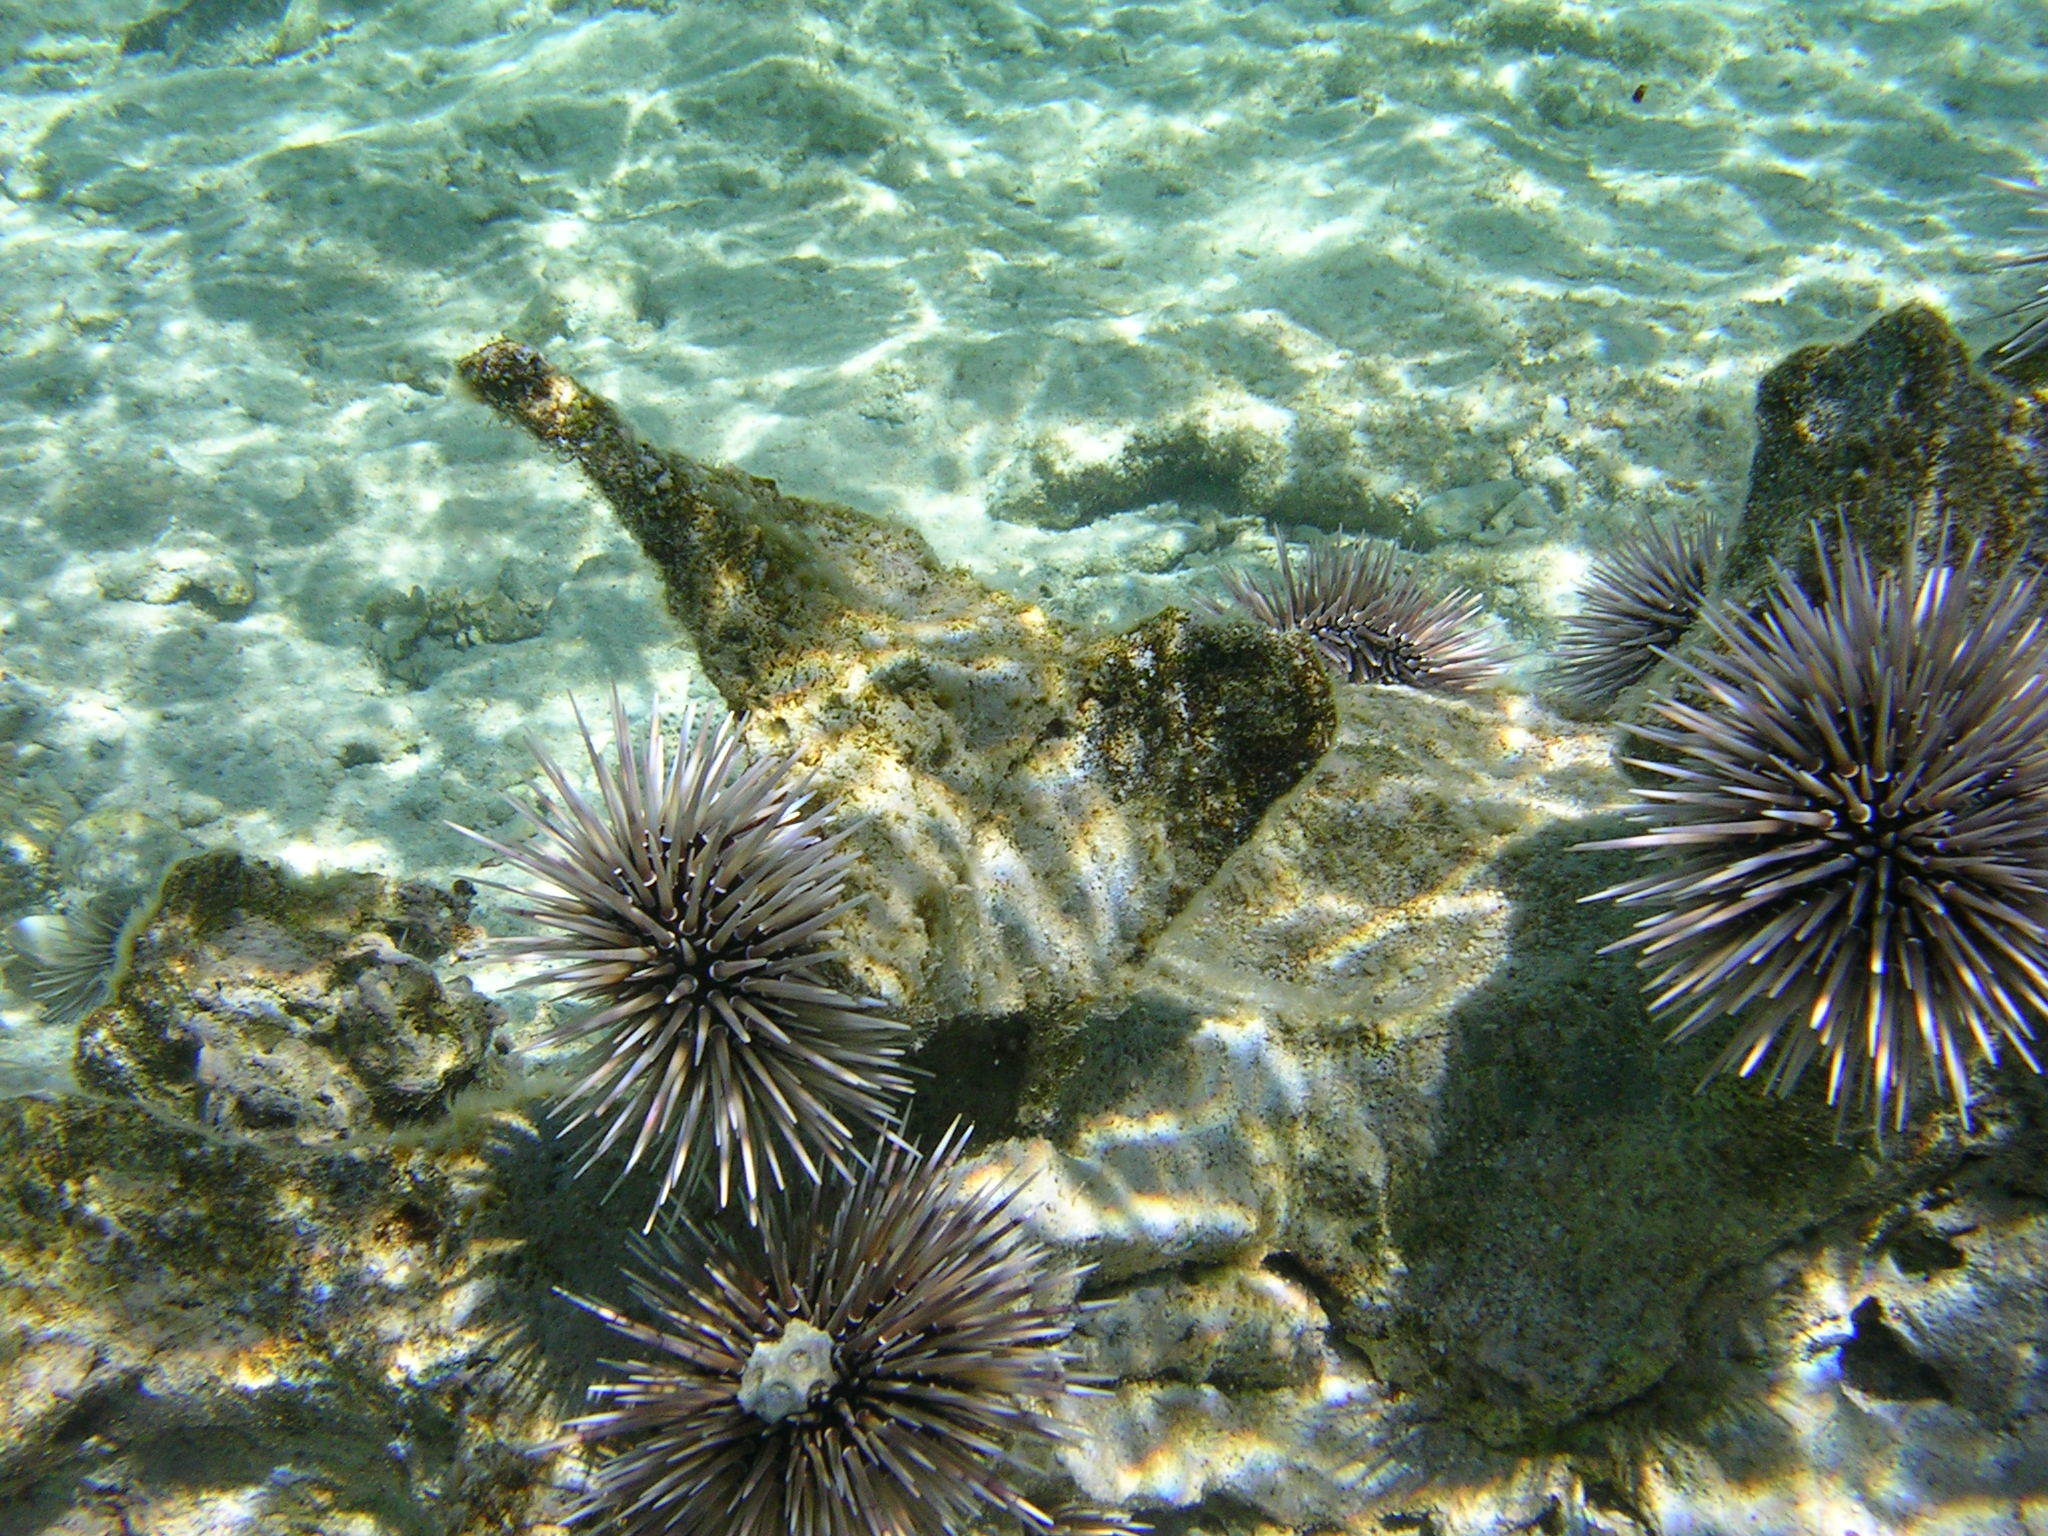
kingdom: Animalia
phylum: Echinodermata
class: Echinoidea
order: Camarodonta
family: Echinometridae
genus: Echinometra
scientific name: Echinometra mathaei
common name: Rock-boring urchin
